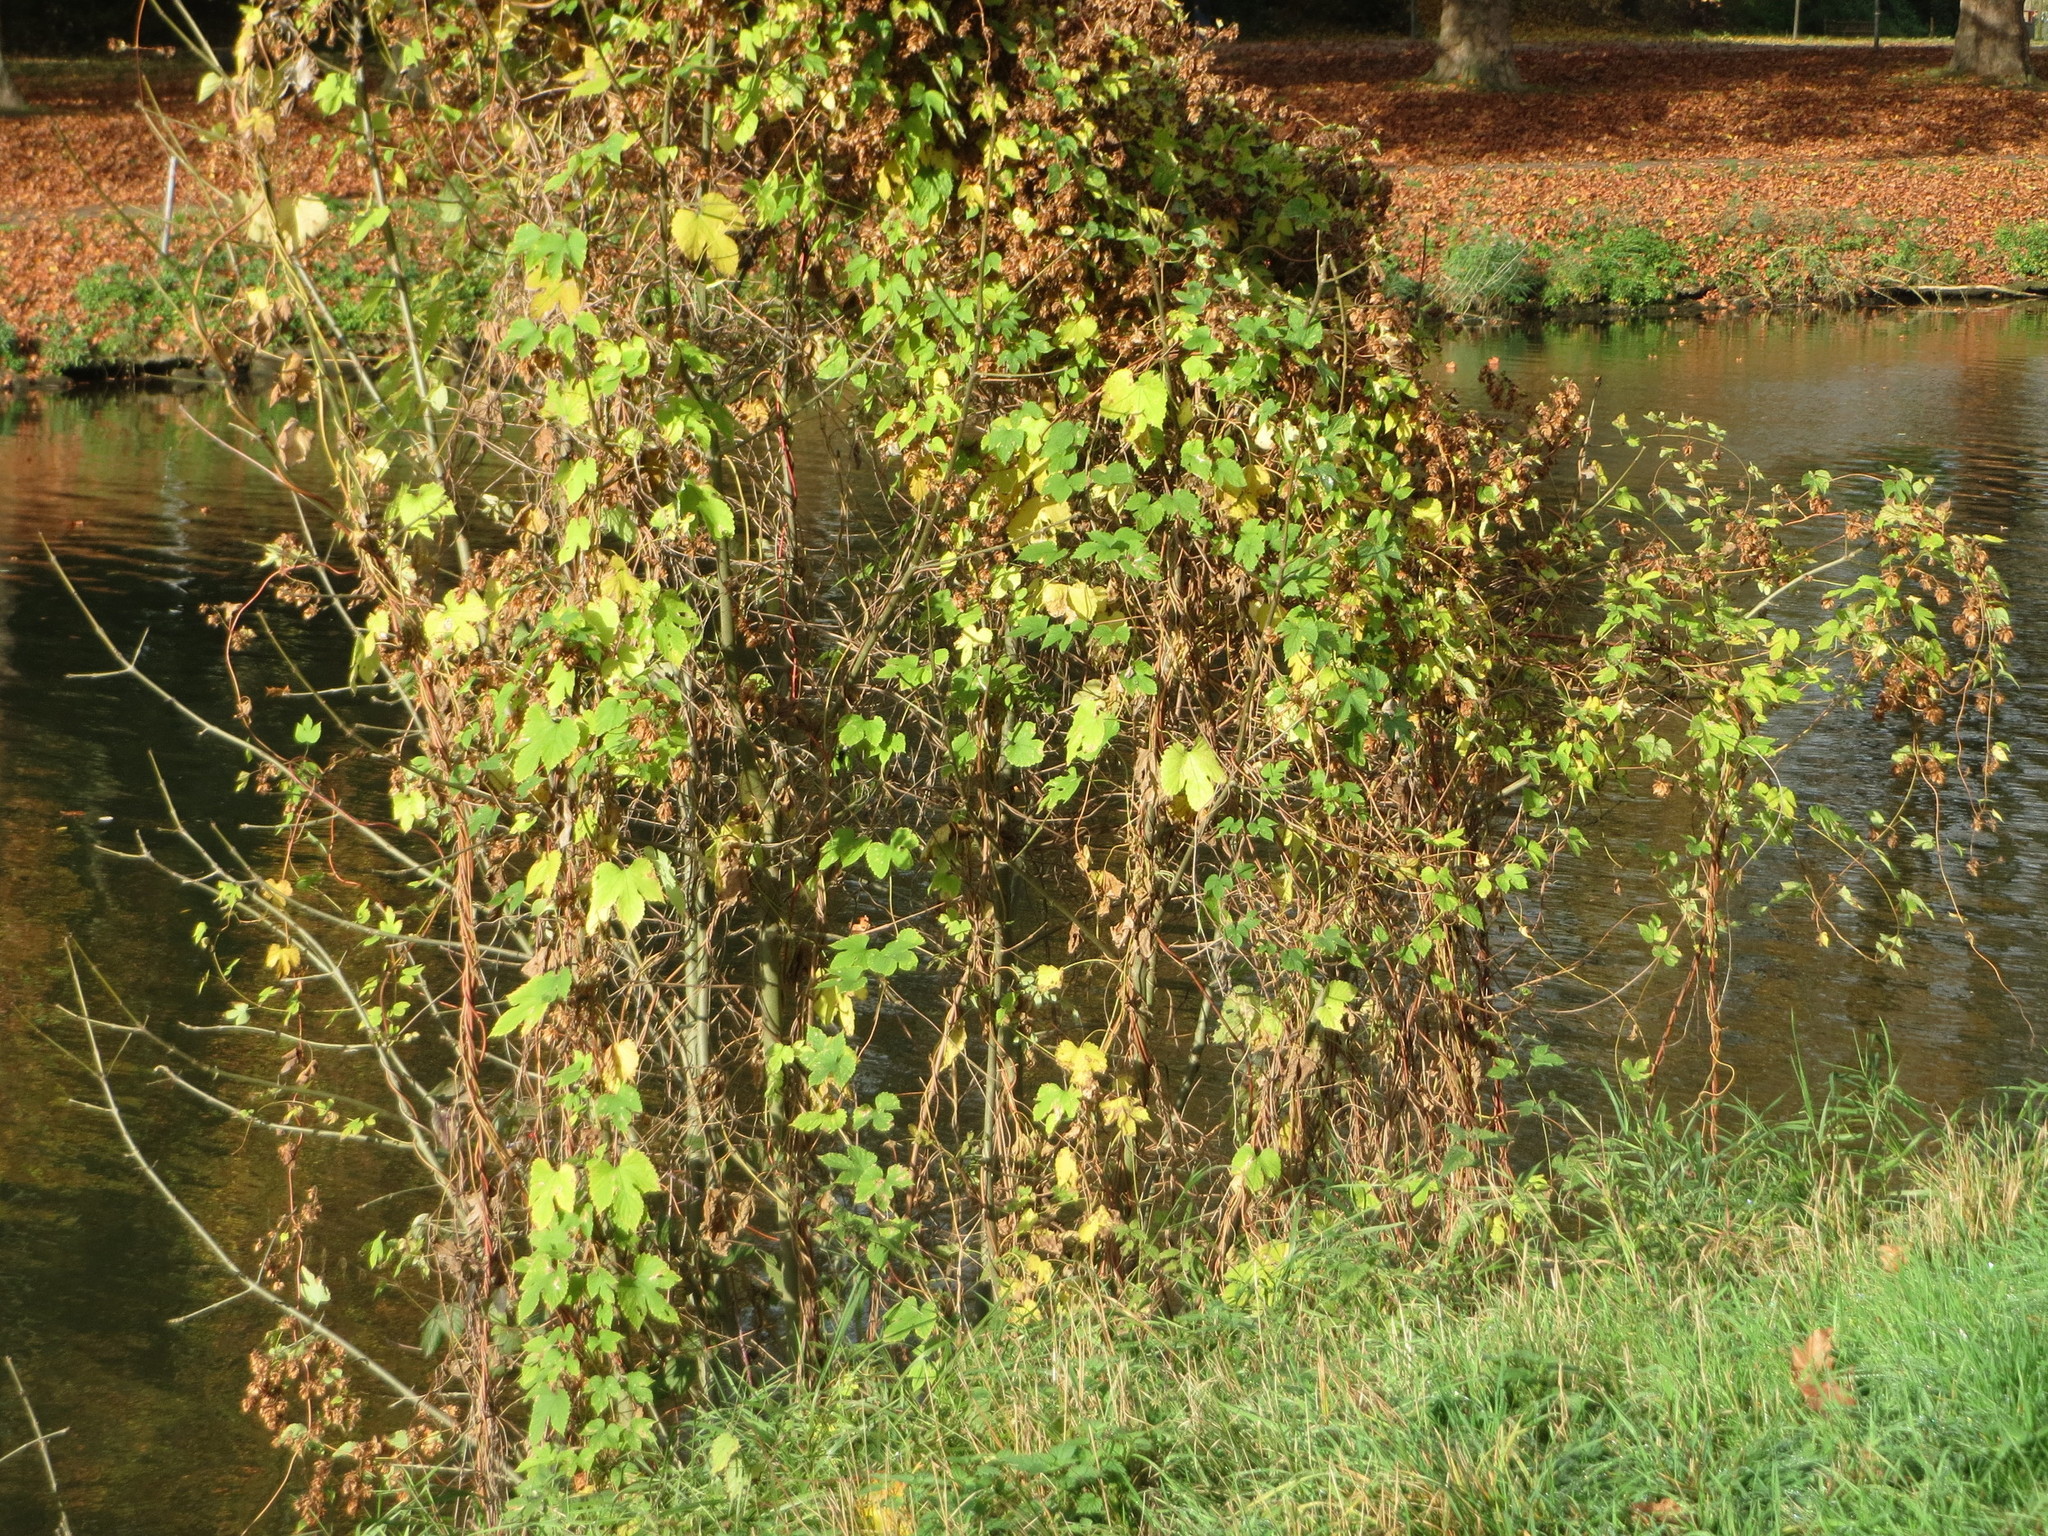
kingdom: Plantae
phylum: Tracheophyta
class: Magnoliopsida
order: Rosales
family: Cannabaceae
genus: Humulus
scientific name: Humulus lupulus
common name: Hop
